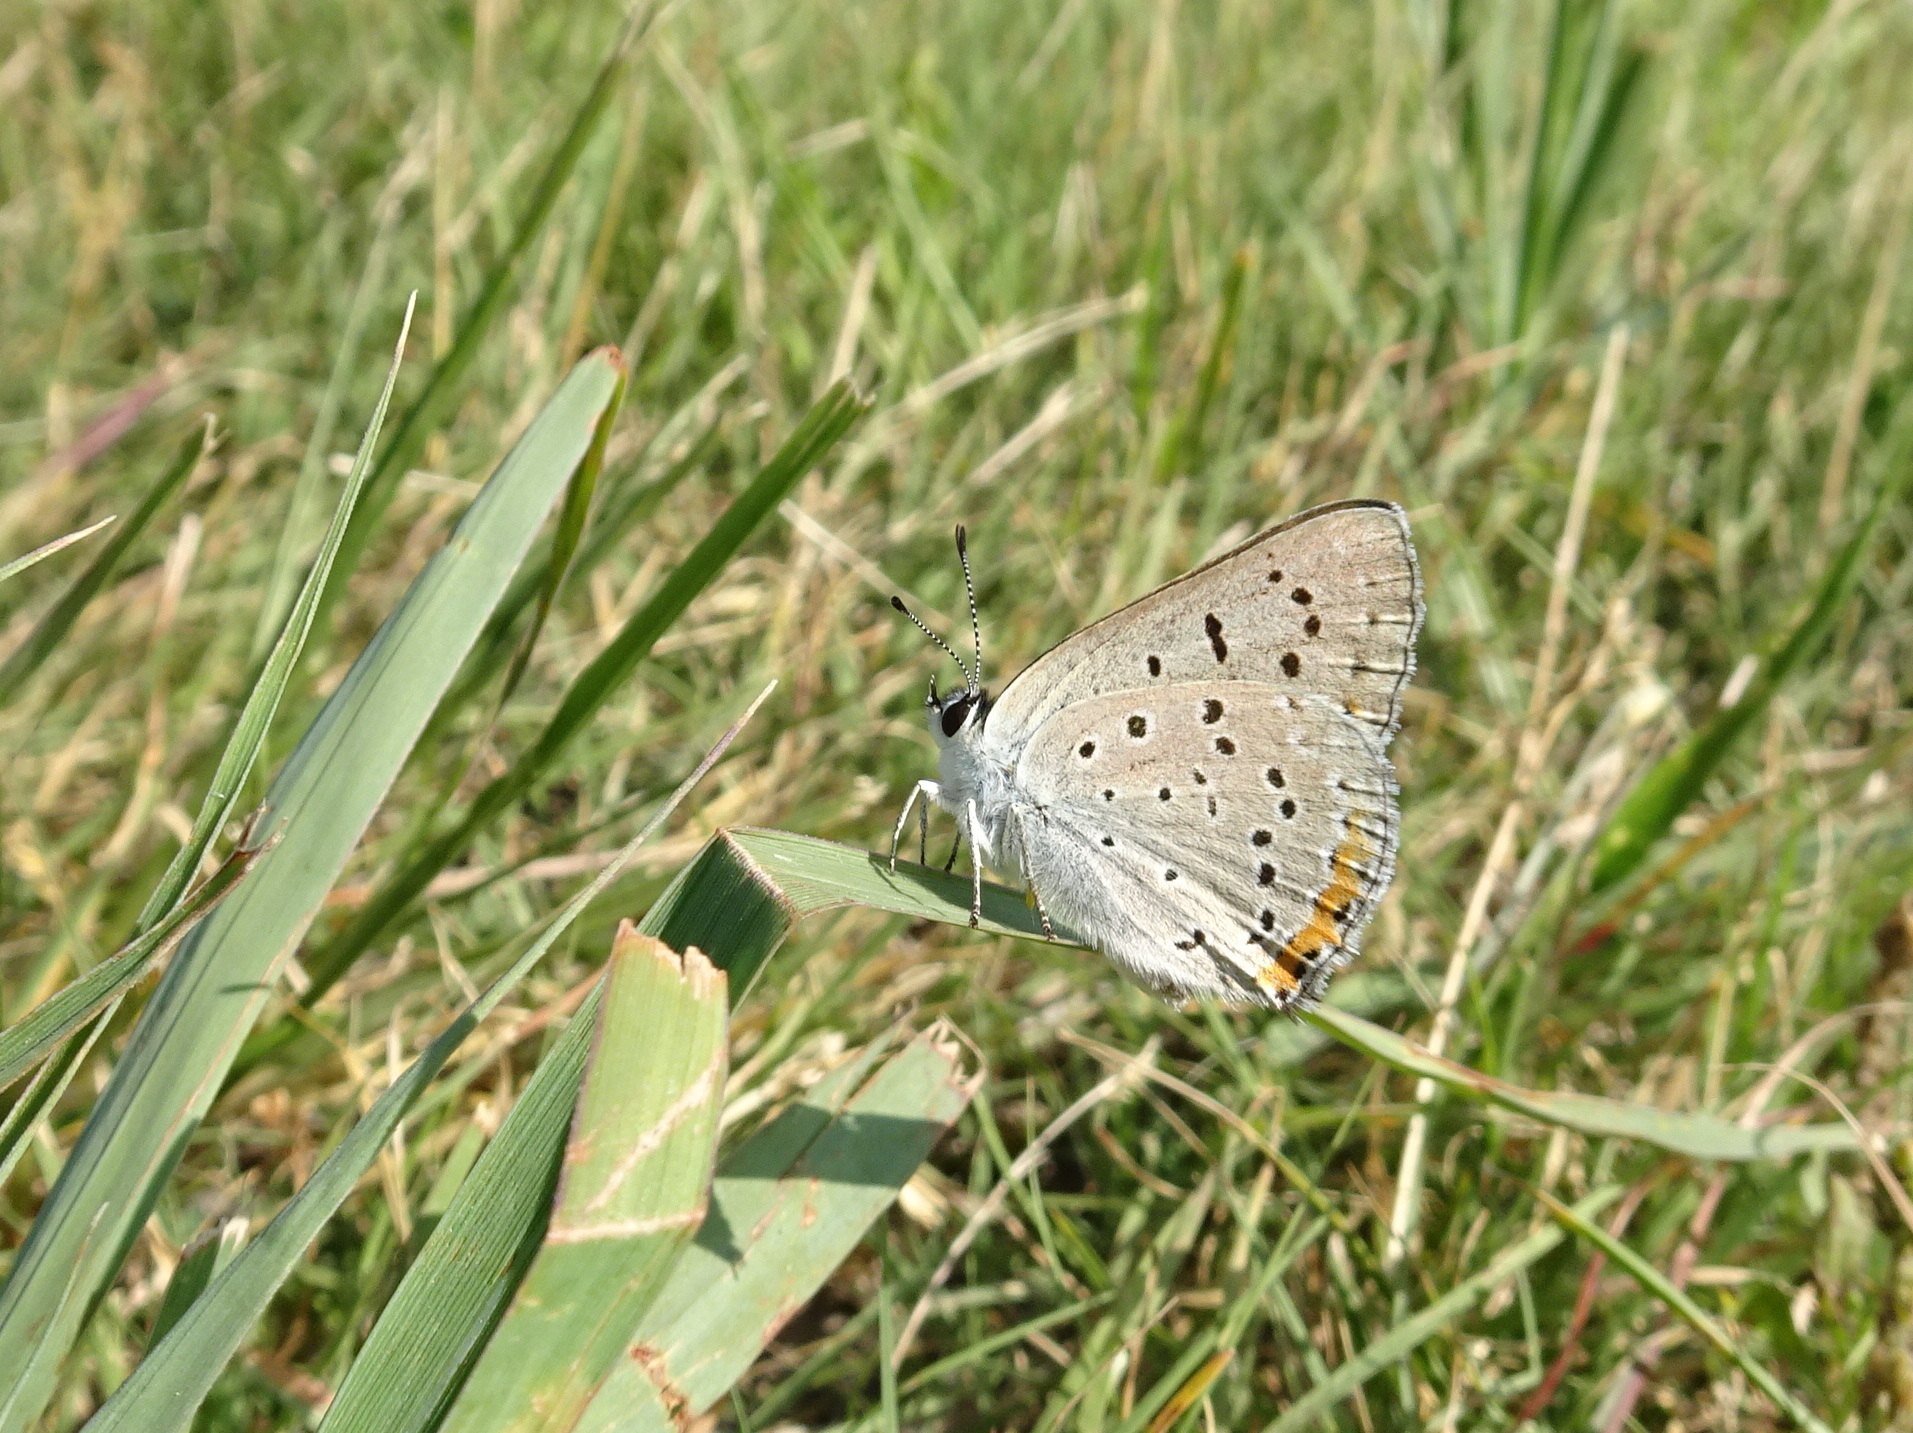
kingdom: Animalia
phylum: Arthropoda
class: Insecta
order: Lepidoptera
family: Lycaenidae
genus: Tharsalea
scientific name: Tharsalea dione
